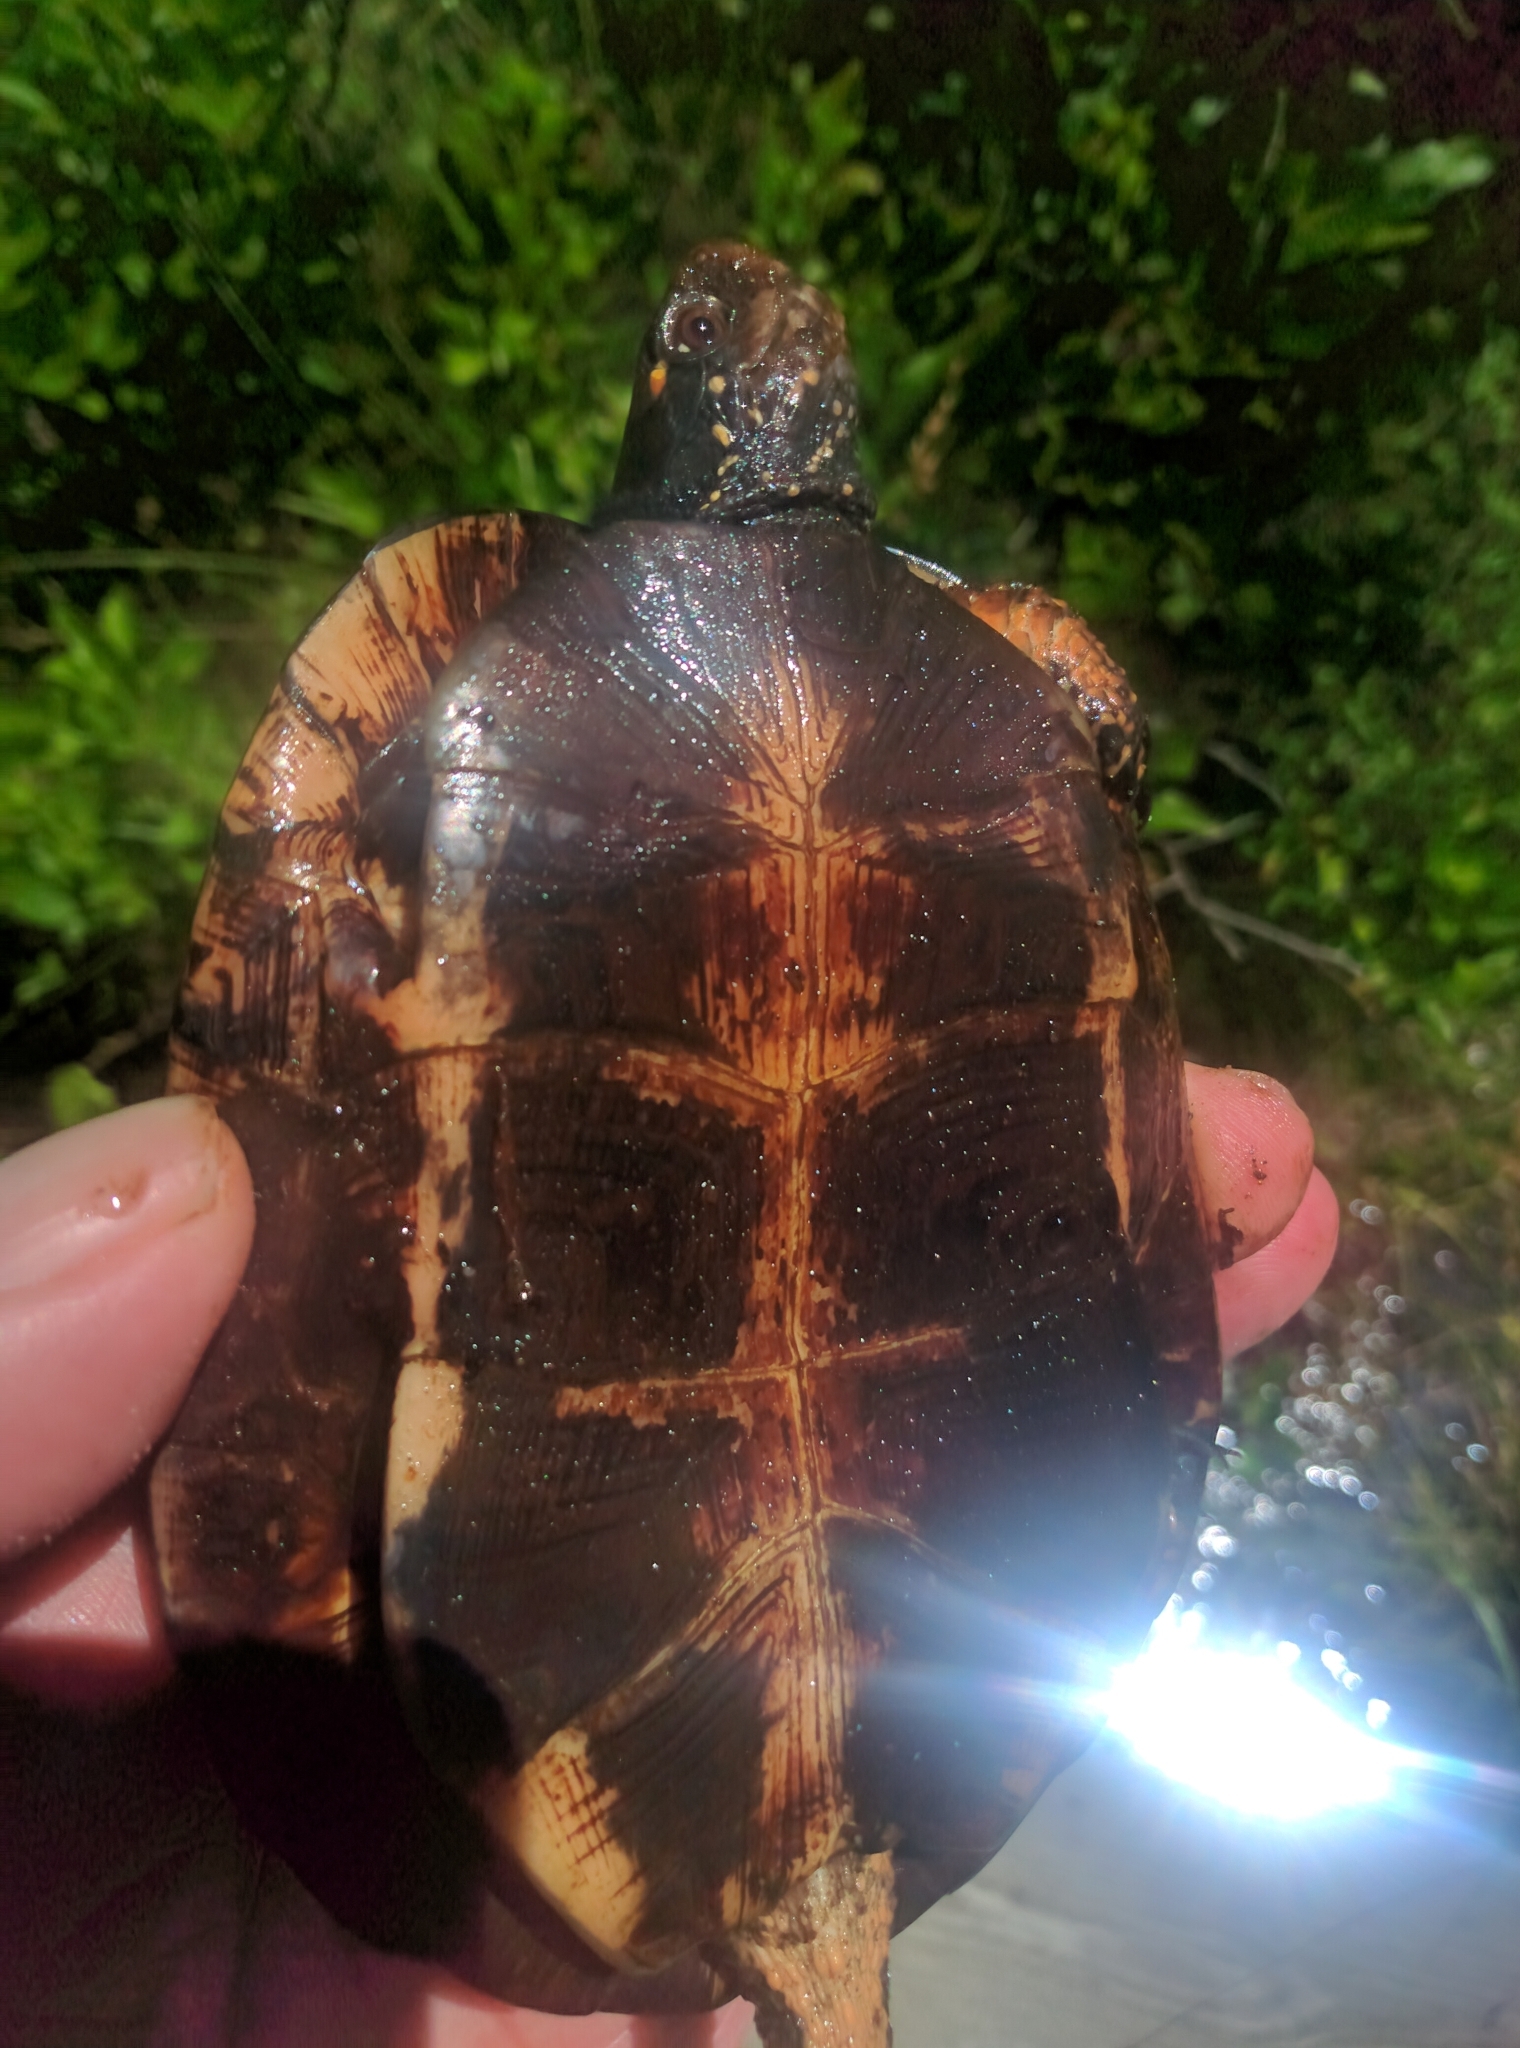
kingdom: Animalia
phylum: Chordata
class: Testudines
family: Emydidae
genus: Clemmys
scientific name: Clemmys guttata
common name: Spotted turtle
